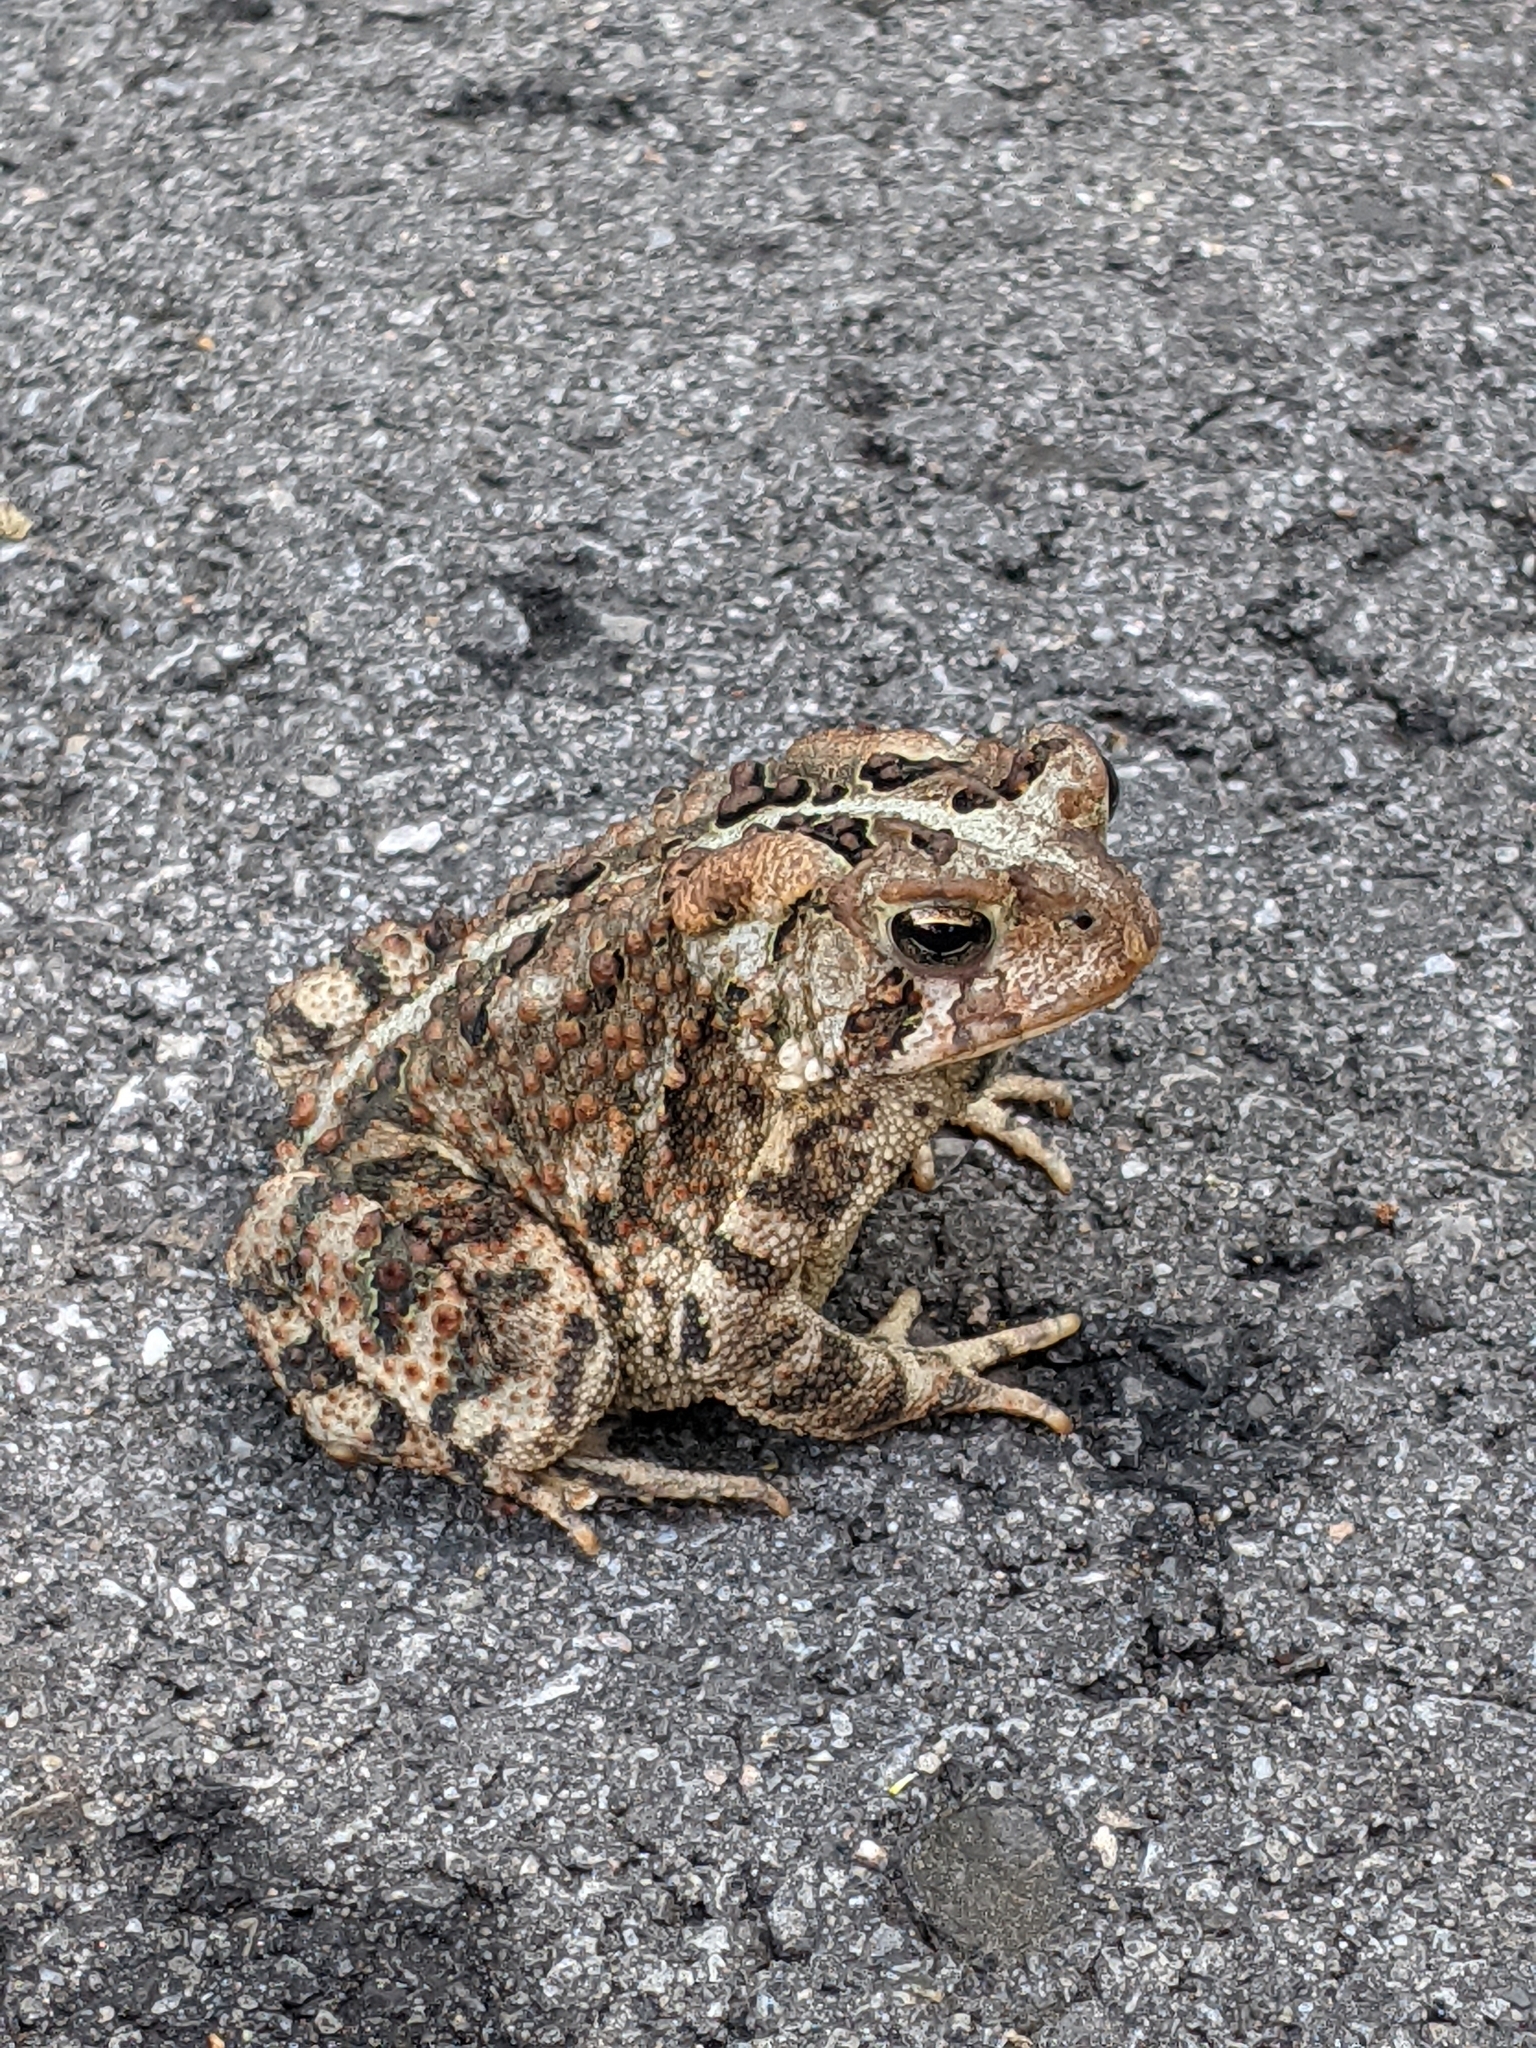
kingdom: Animalia
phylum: Chordata
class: Amphibia
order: Anura
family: Bufonidae
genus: Anaxyrus
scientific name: Anaxyrus americanus
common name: American toad
